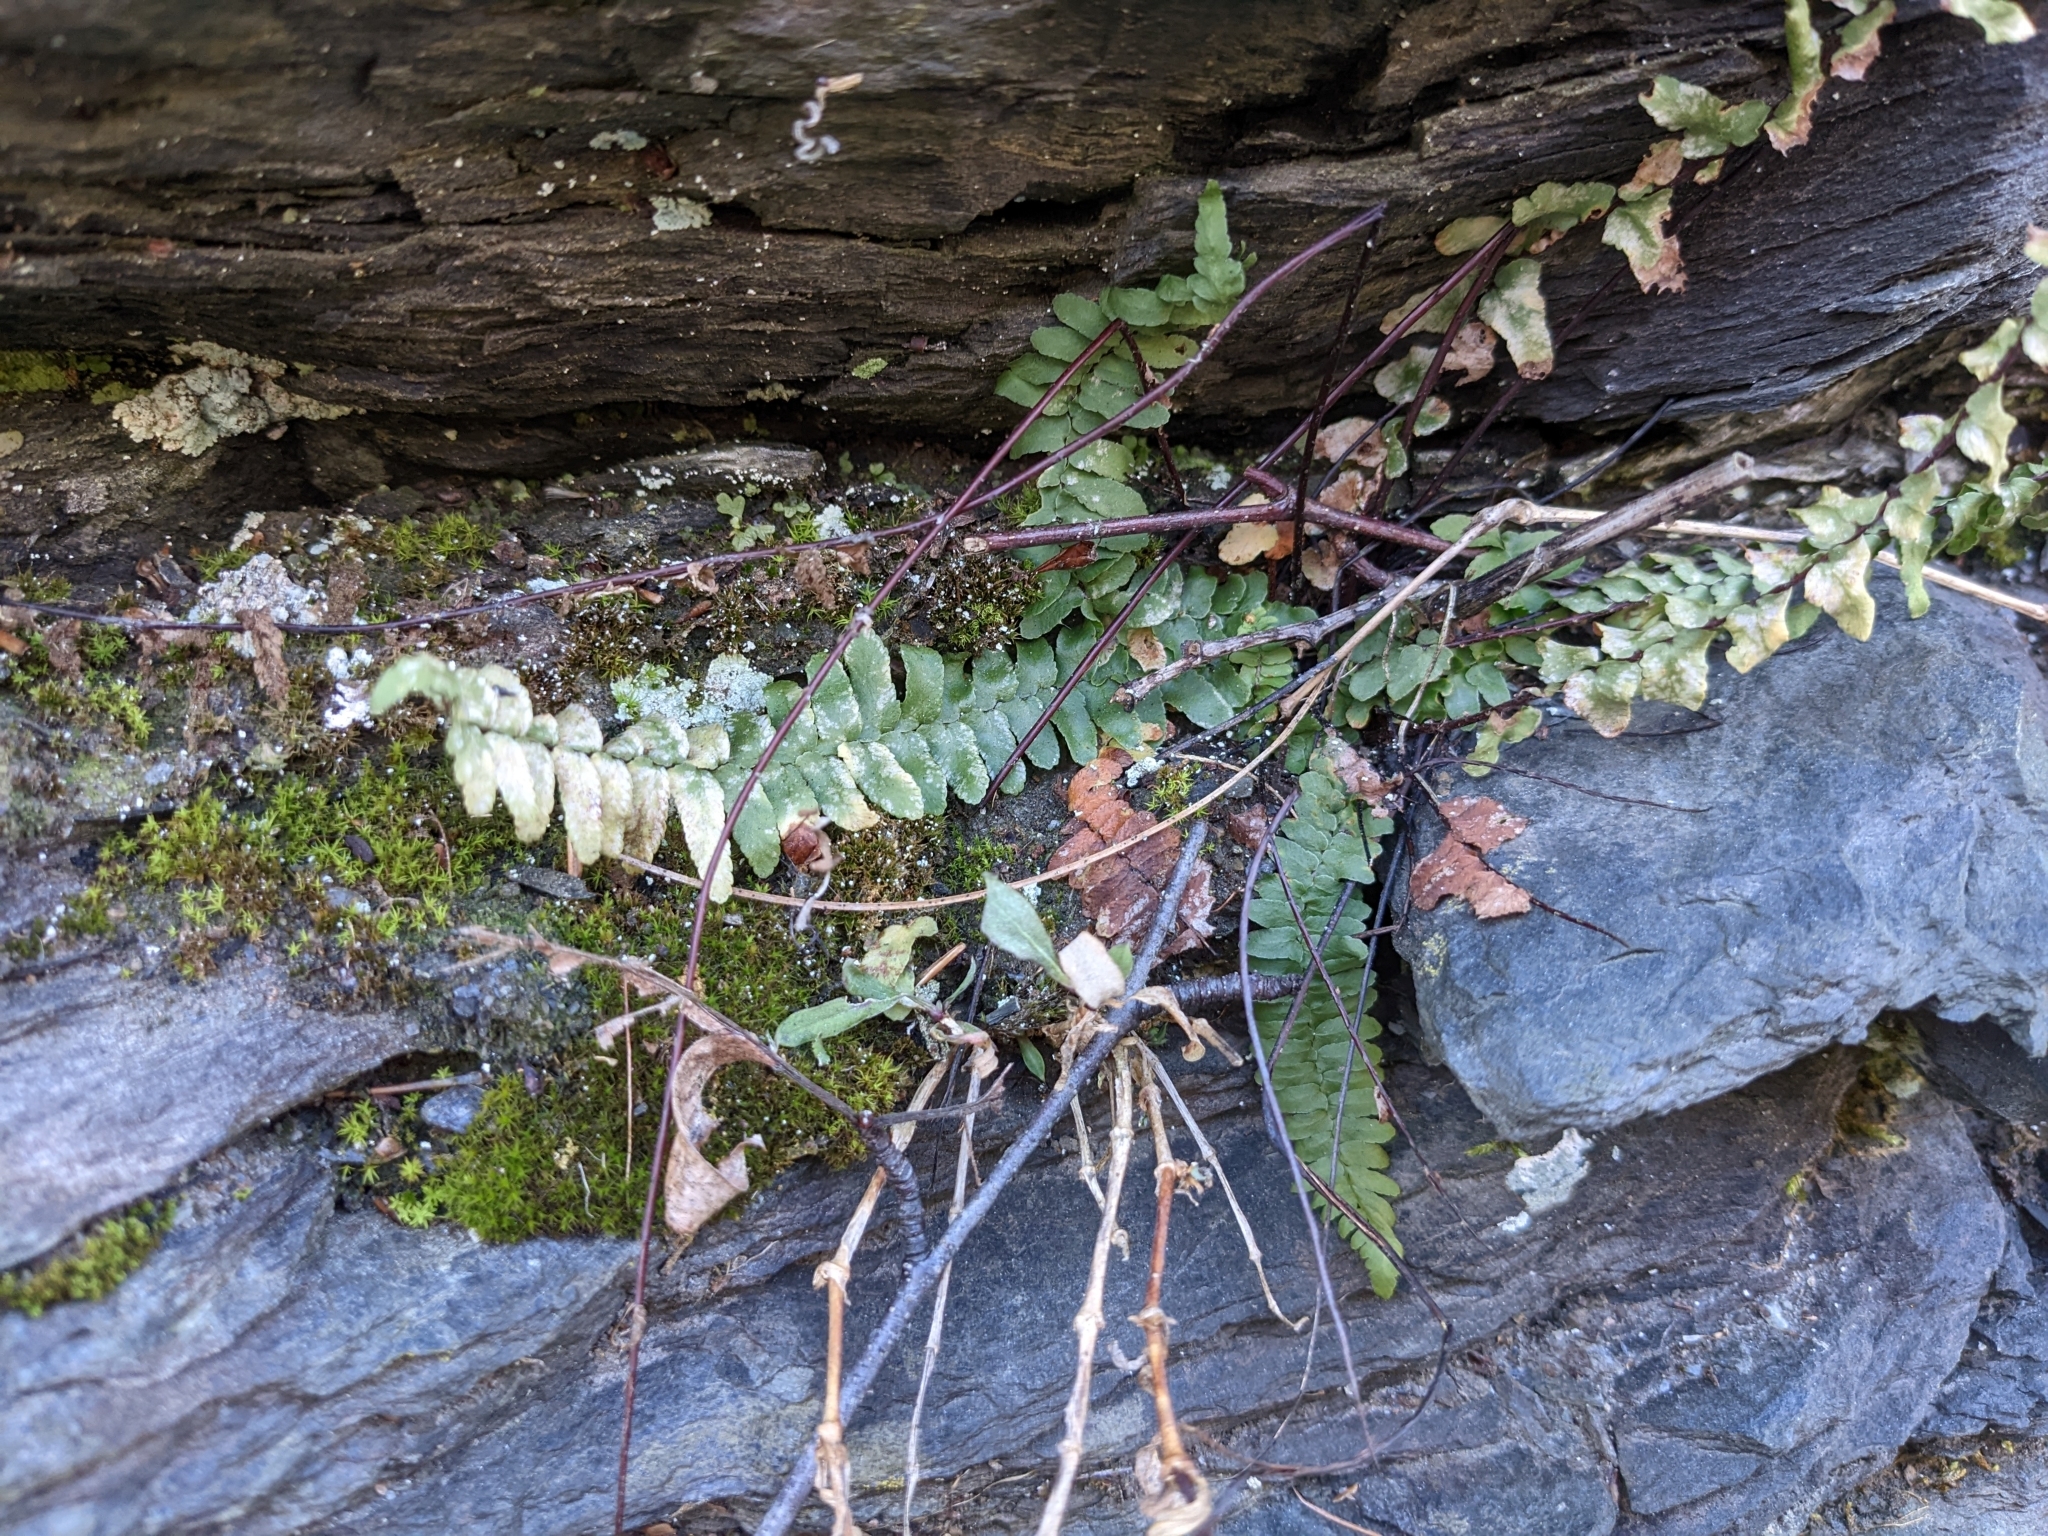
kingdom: Plantae
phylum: Tracheophyta
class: Polypodiopsida
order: Polypodiales
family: Aspleniaceae
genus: Asplenium
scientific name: Asplenium platyneuron
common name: Ebony spleenwort
